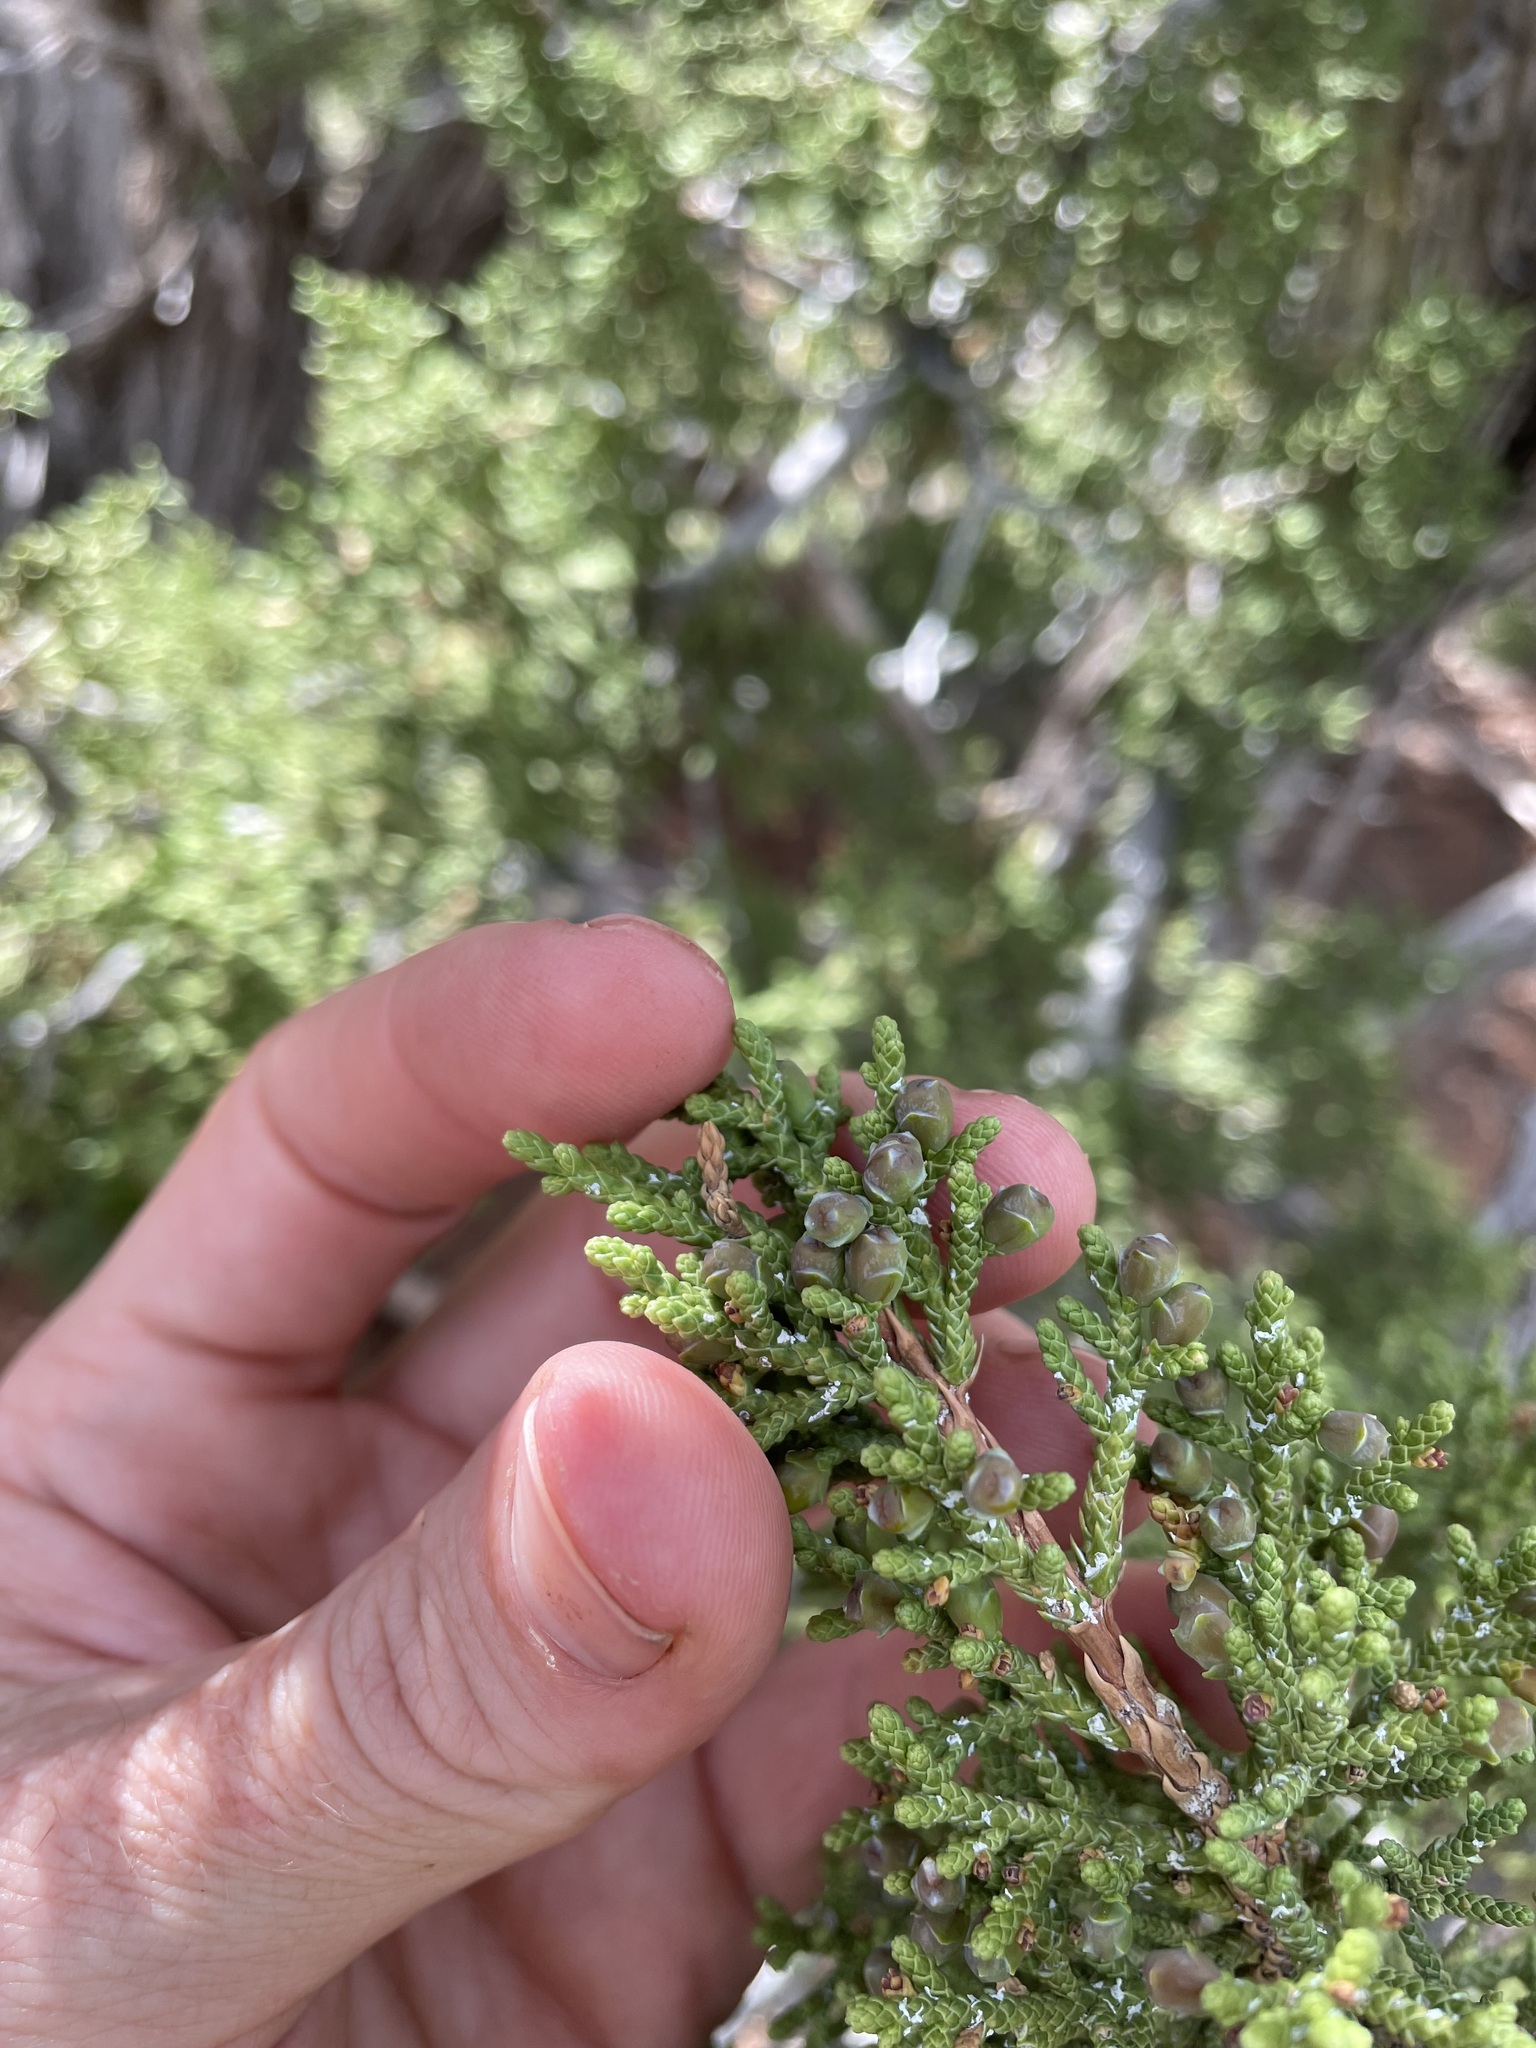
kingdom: Plantae
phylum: Tracheophyta
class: Pinopsida
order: Pinales
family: Cupressaceae
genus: Juniperus
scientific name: Juniperus monosperma
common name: One-seed juniper
